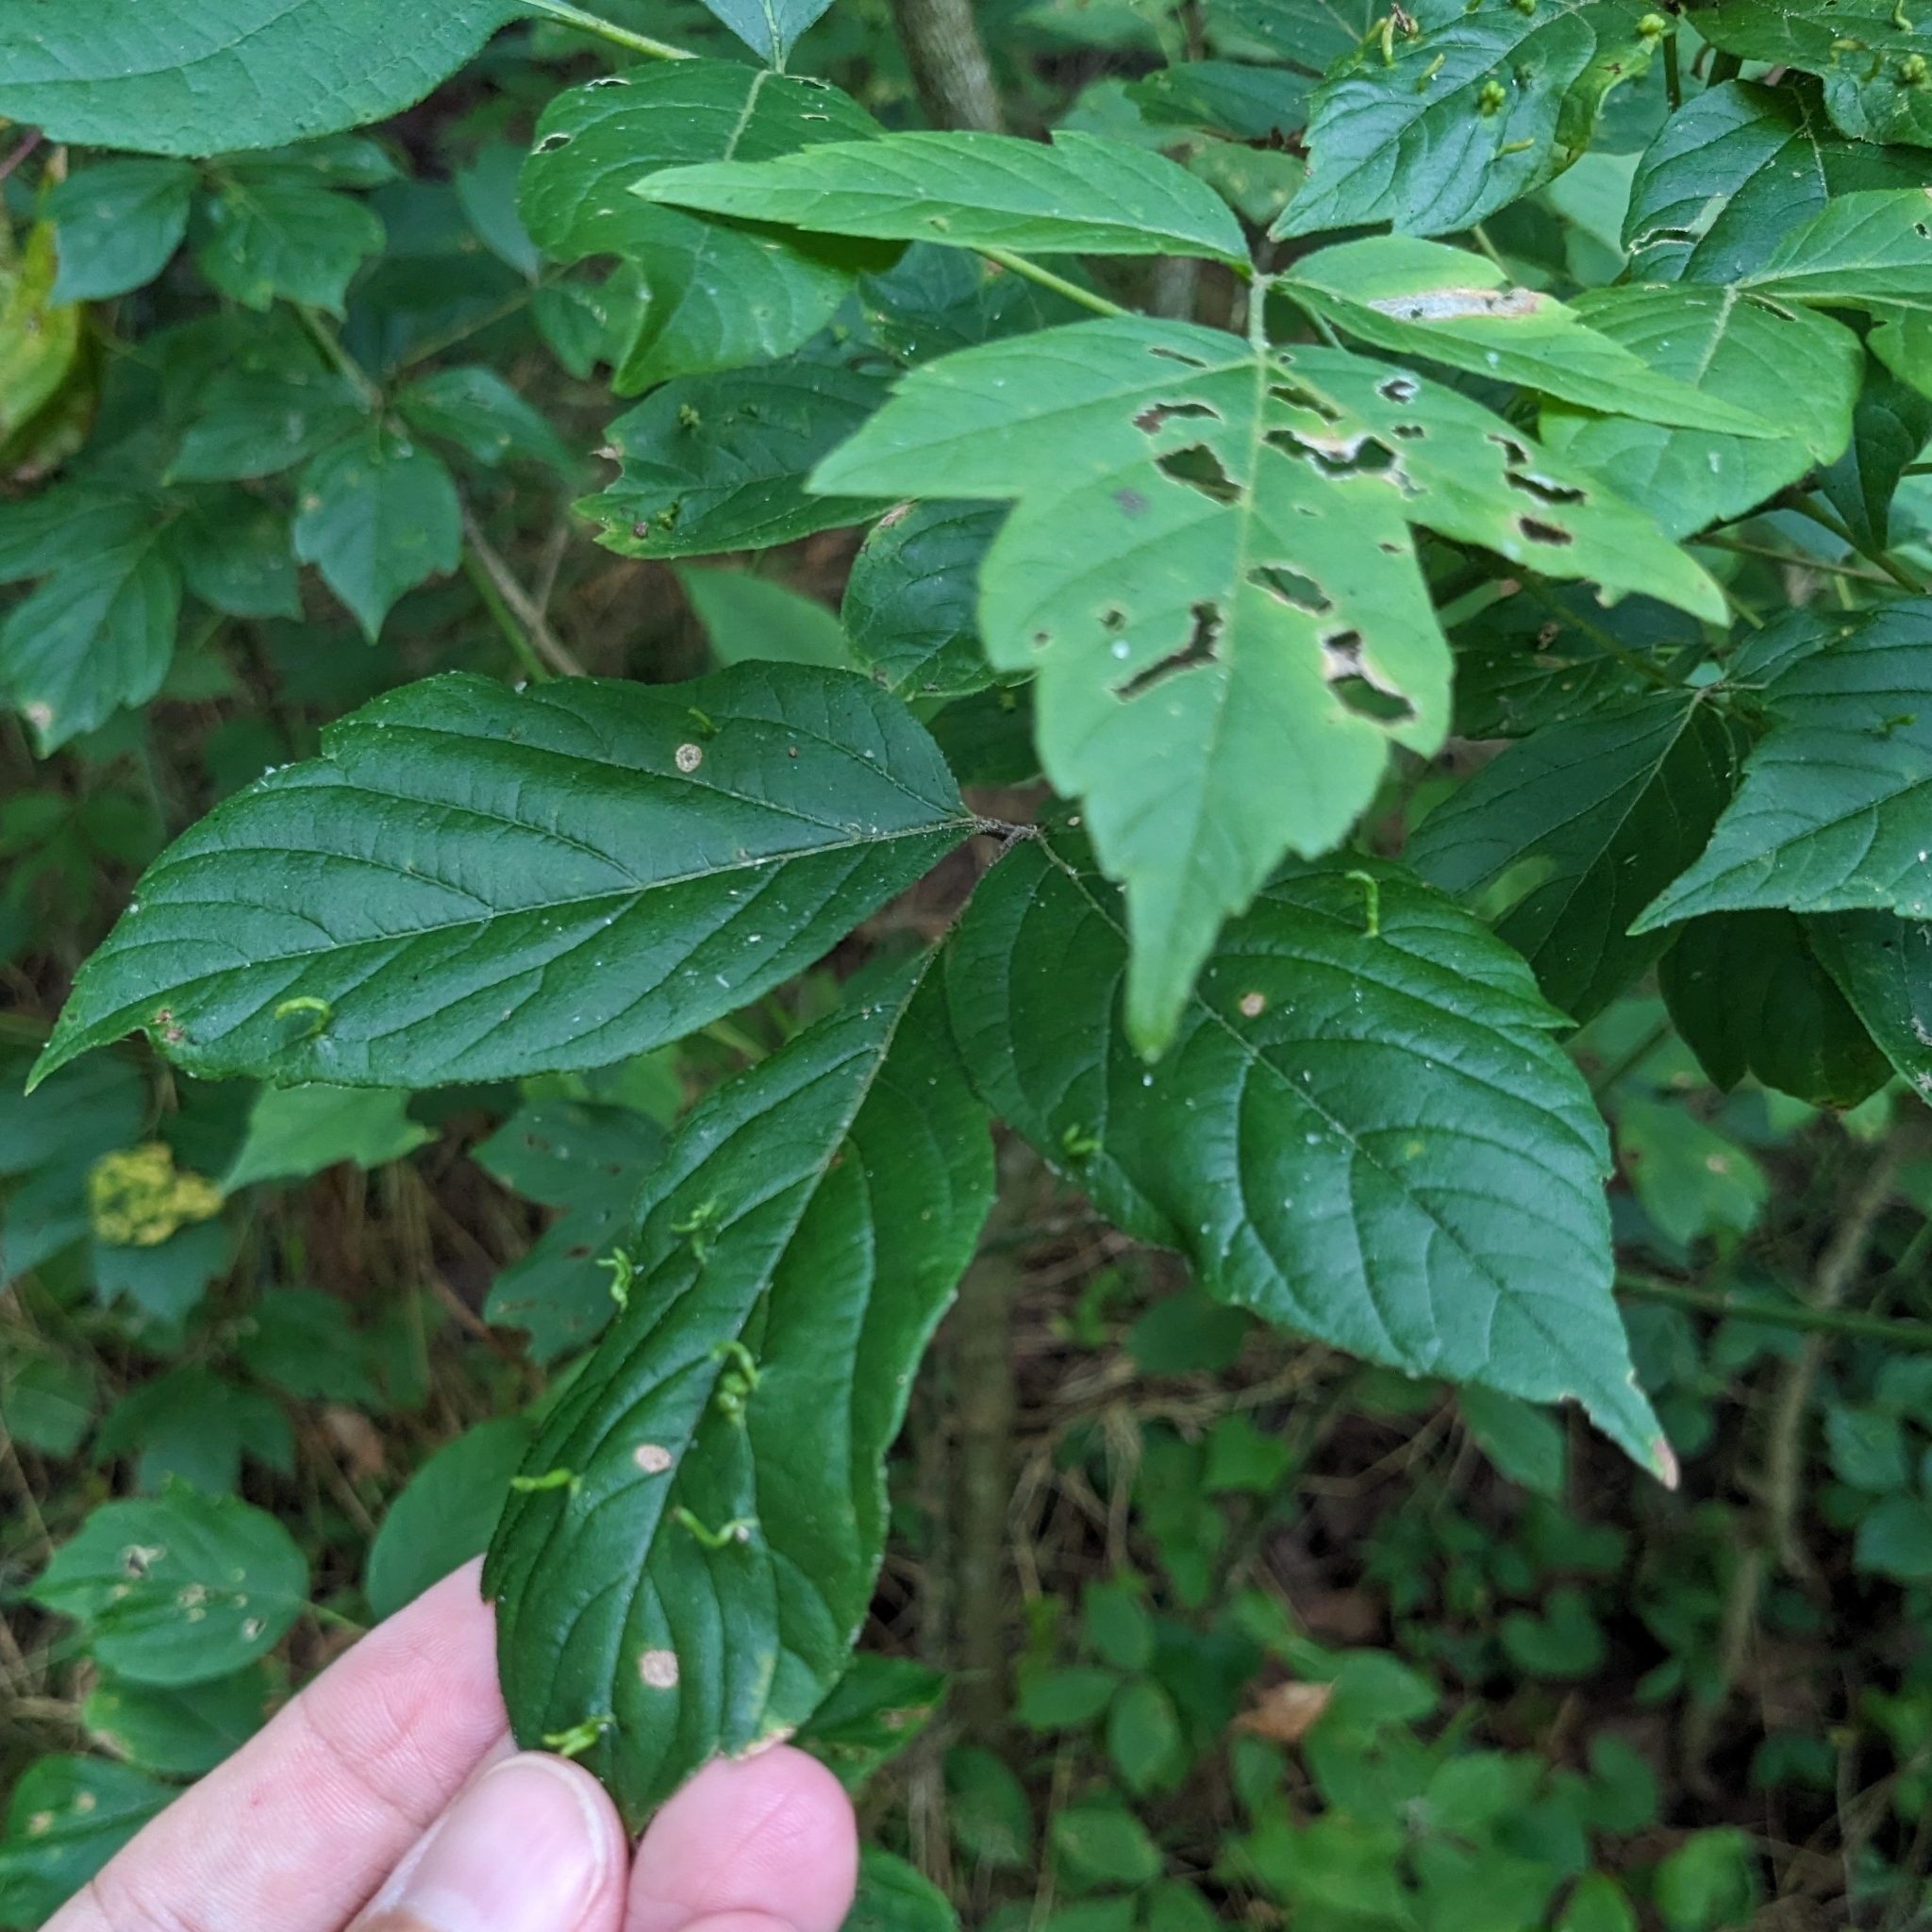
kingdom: Animalia
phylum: Arthropoda
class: Arachnida
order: Trombidiformes
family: Eriophyidae
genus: Aceria
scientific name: Aceria
